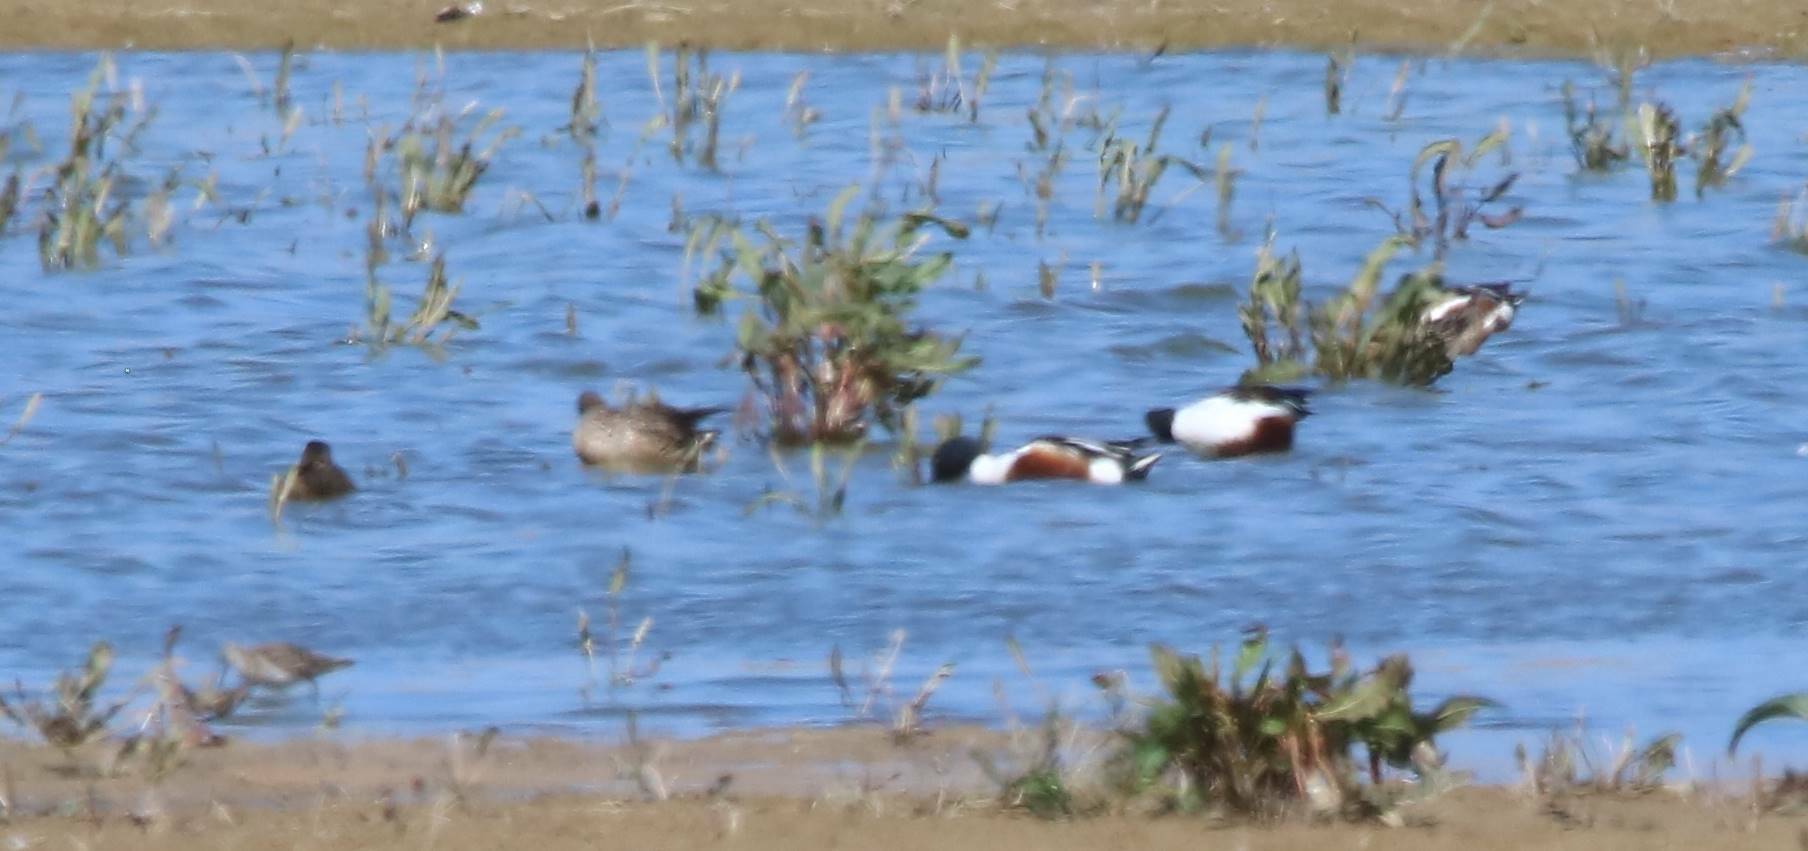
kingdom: Animalia
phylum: Chordata
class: Aves
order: Anseriformes
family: Anatidae
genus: Spatula
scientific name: Spatula clypeata
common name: Northern shoveler
